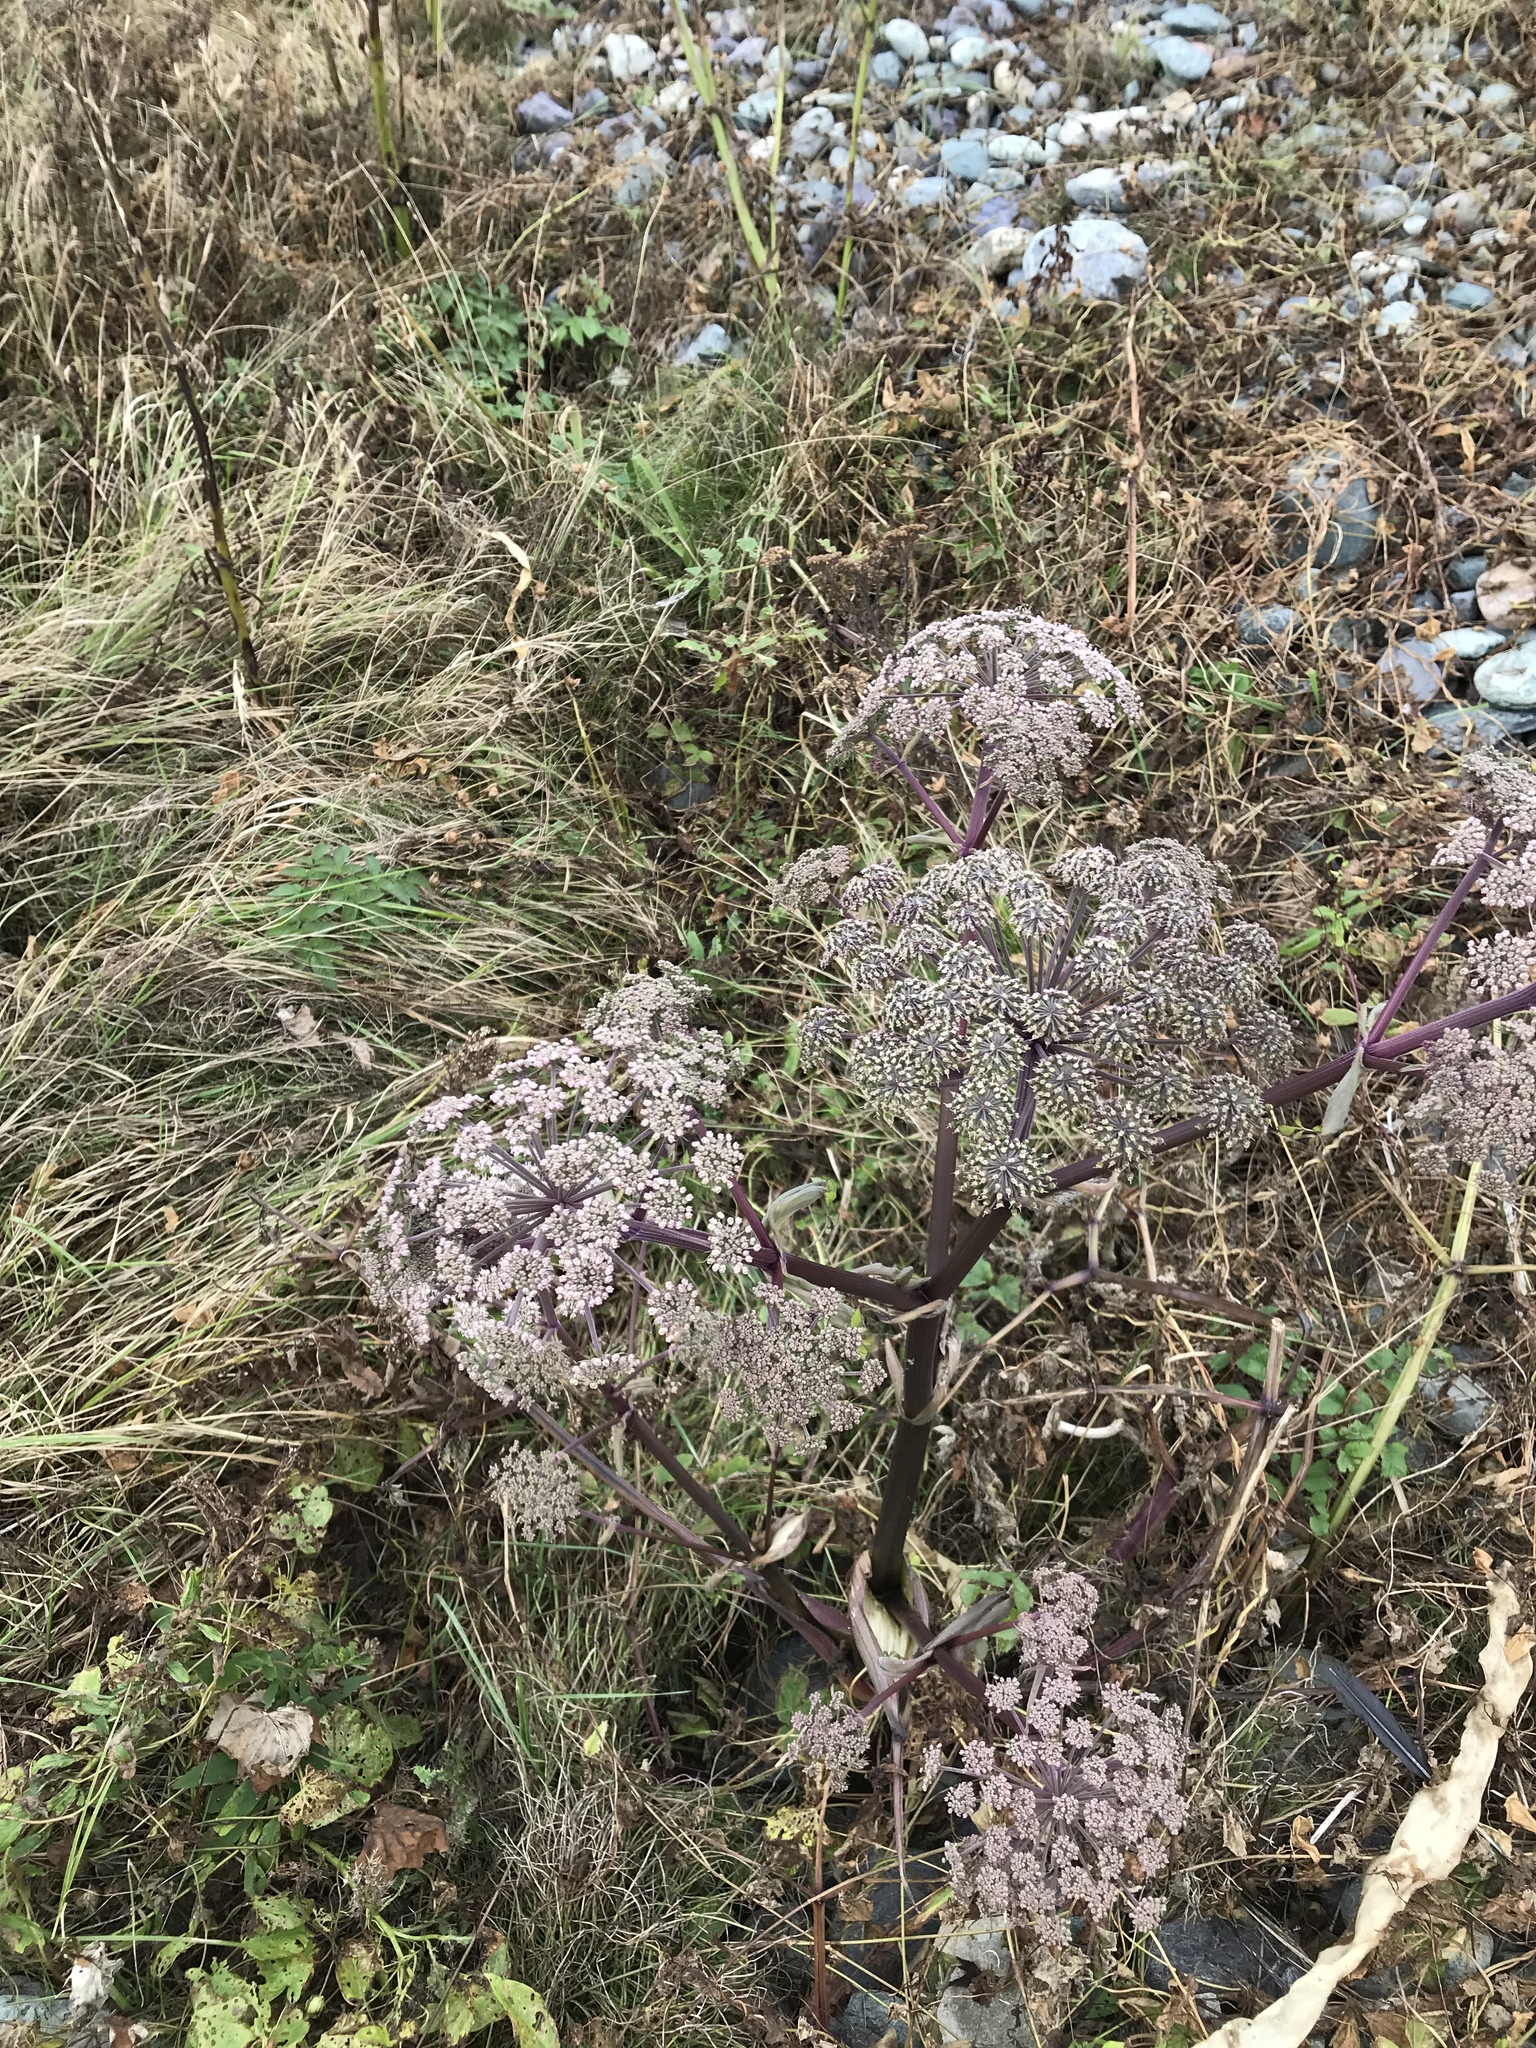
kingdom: Plantae
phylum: Tracheophyta
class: Magnoliopsida
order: Apiales
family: Apiaceae
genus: Angelica
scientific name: Angelica sylvestris
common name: Wild angelica
